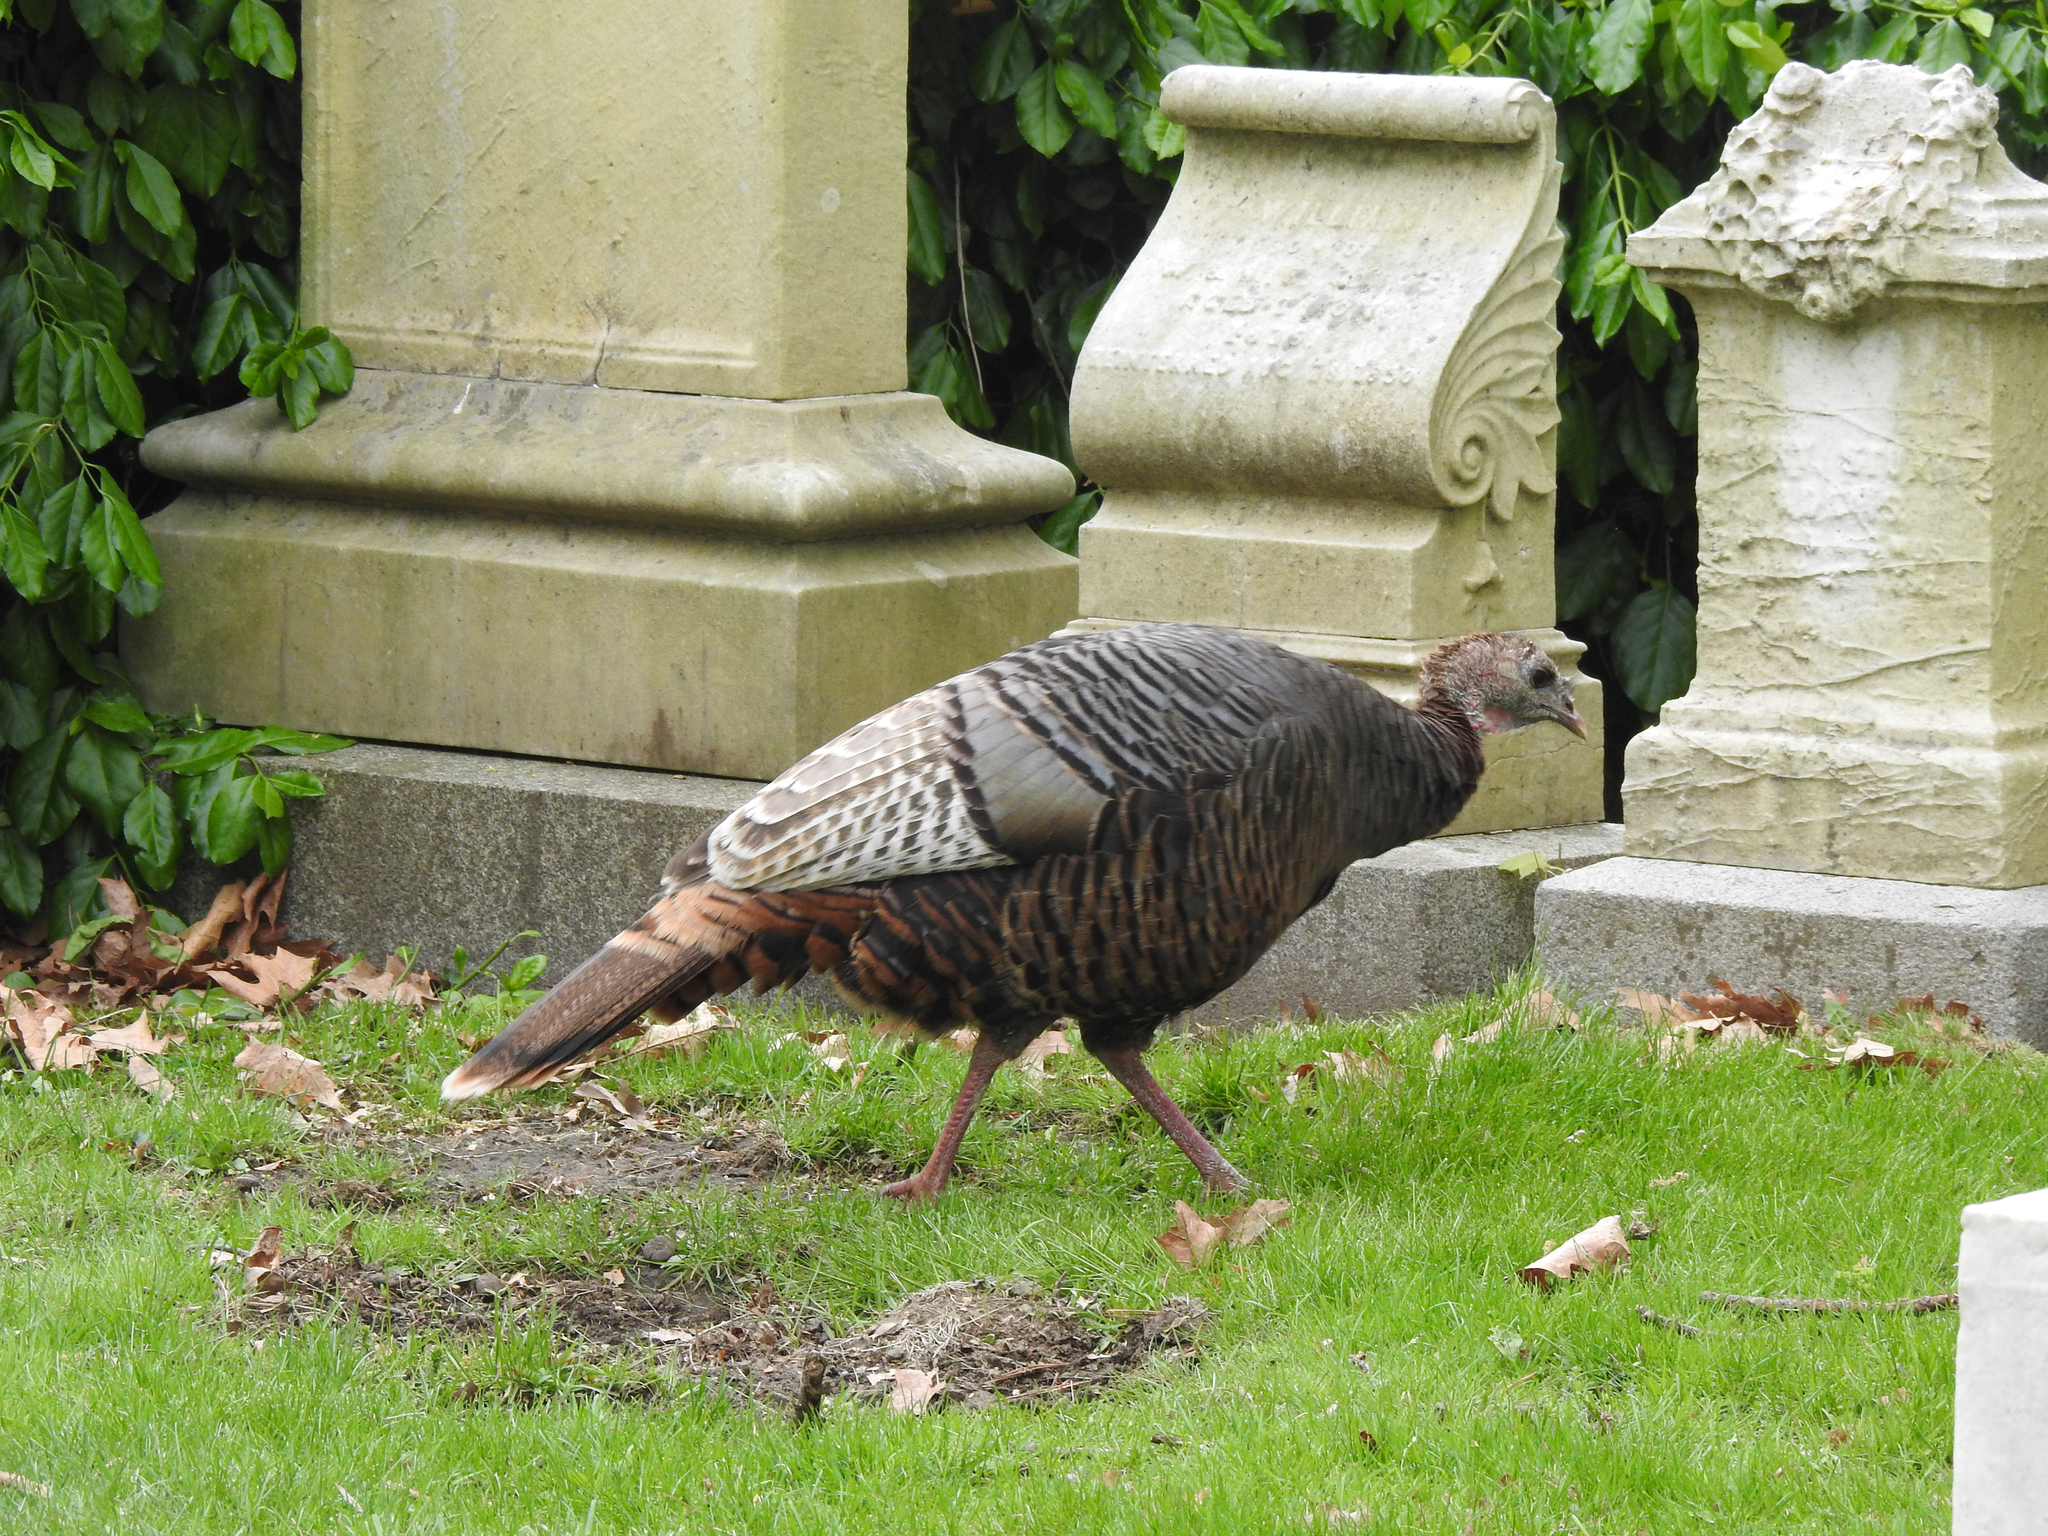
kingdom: Animalia
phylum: Chordata
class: Aves
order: Galliformes
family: Phasianidae
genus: Meleagris
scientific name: Meleagris gallopavo
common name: Wild turkey
